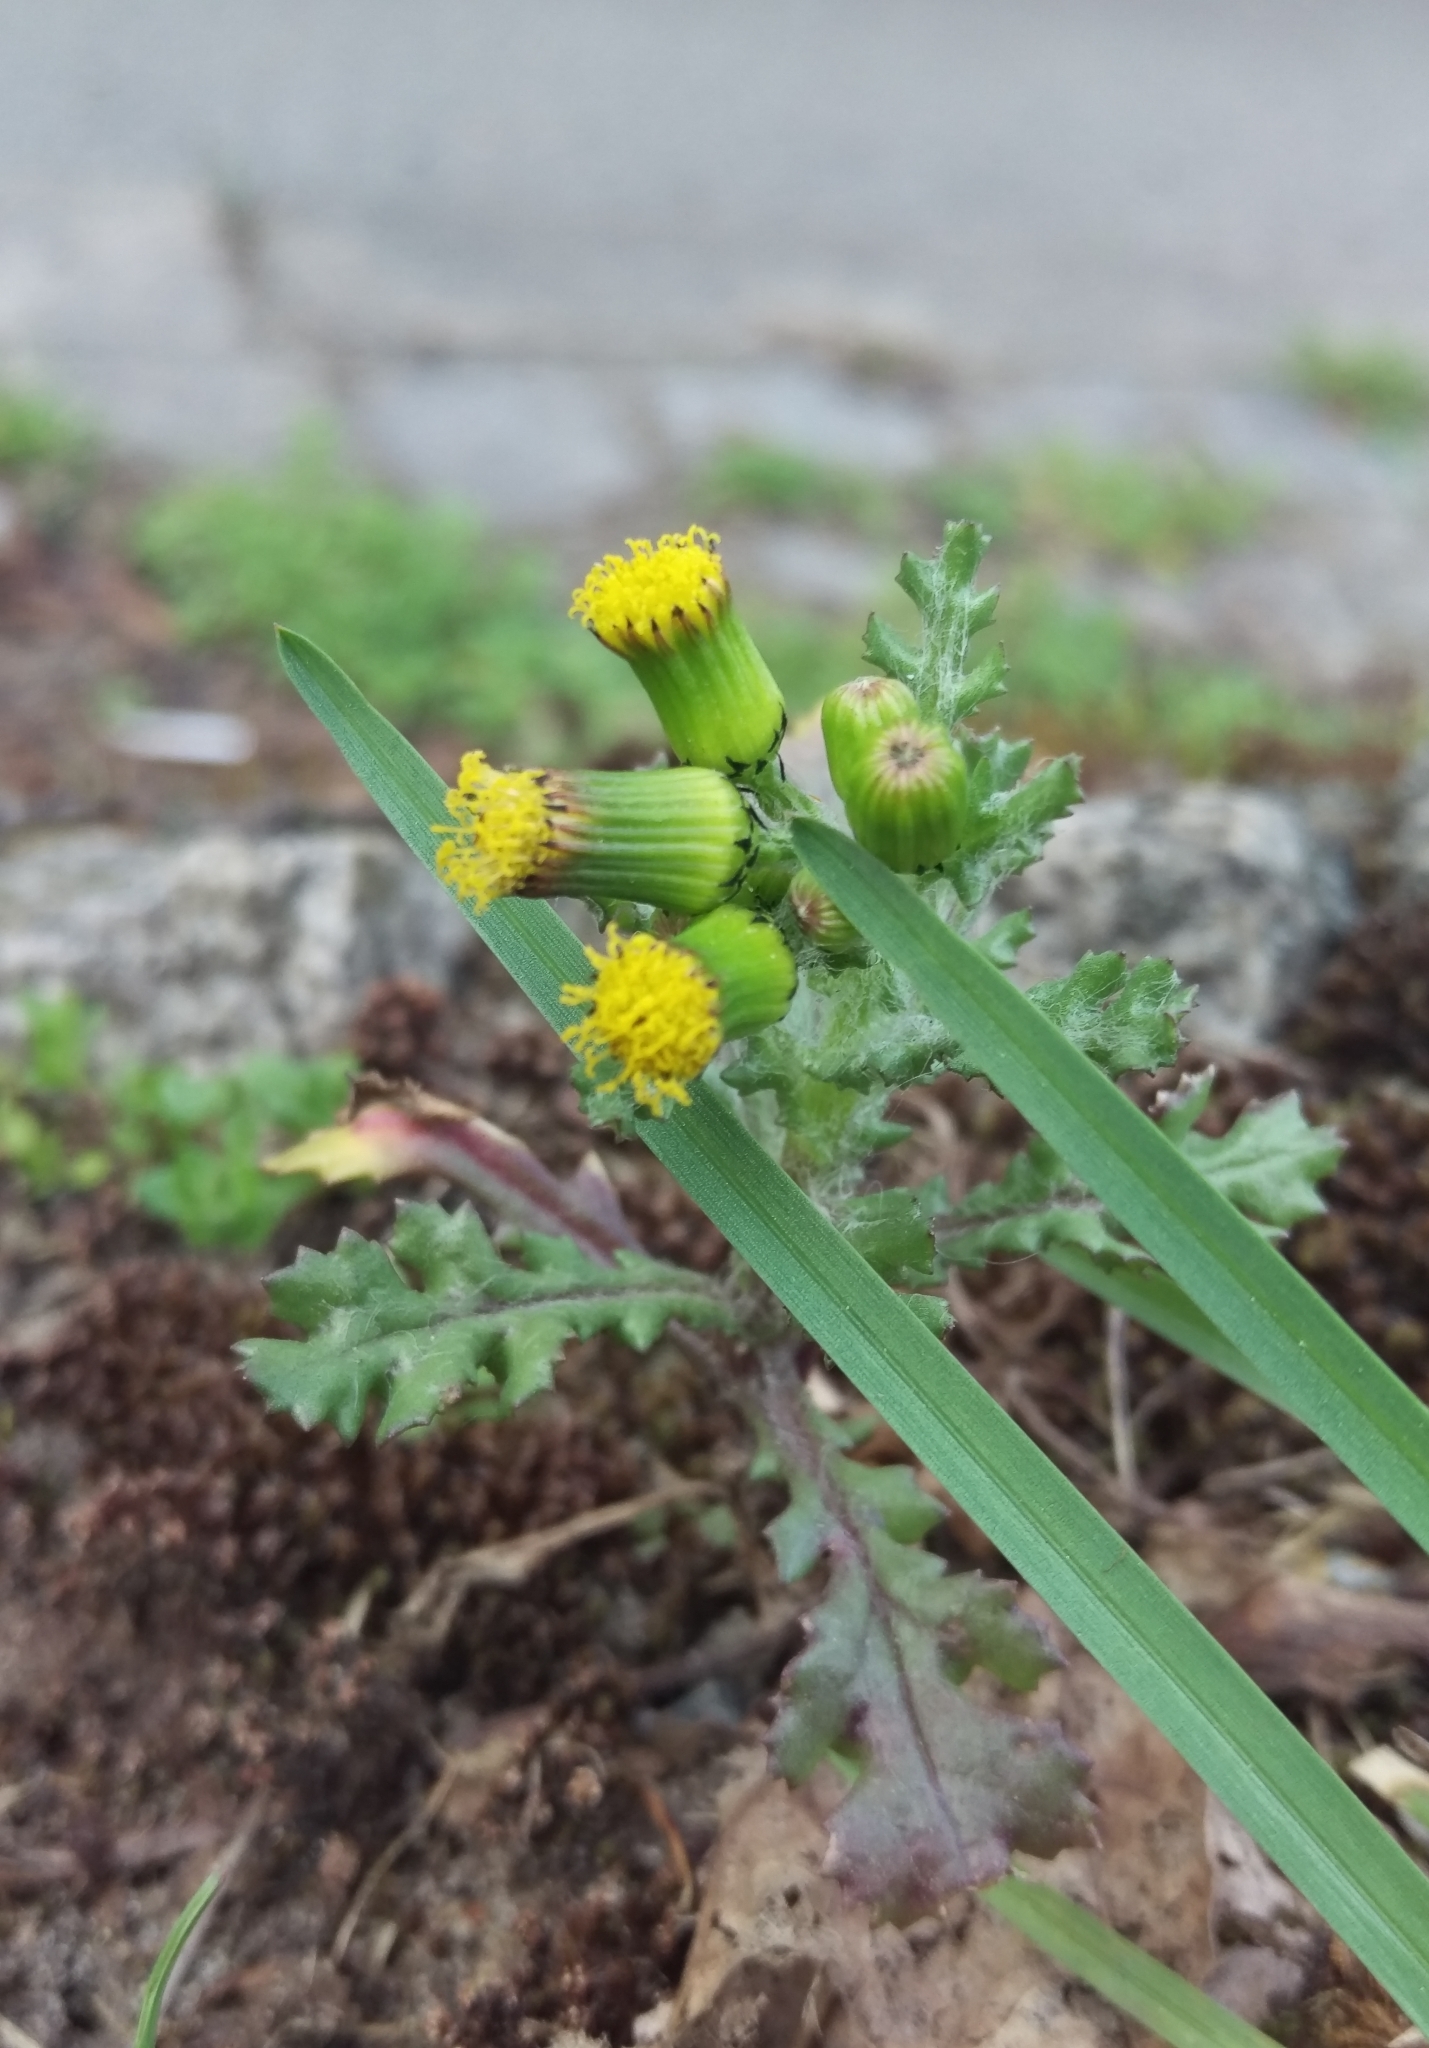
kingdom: Plantae
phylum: Tracheophyta
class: Magnoliopsida
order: Asterales
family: Asteraceae
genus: Senecio
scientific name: Senecio vulgaris
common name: Old-man-in-the-spring
